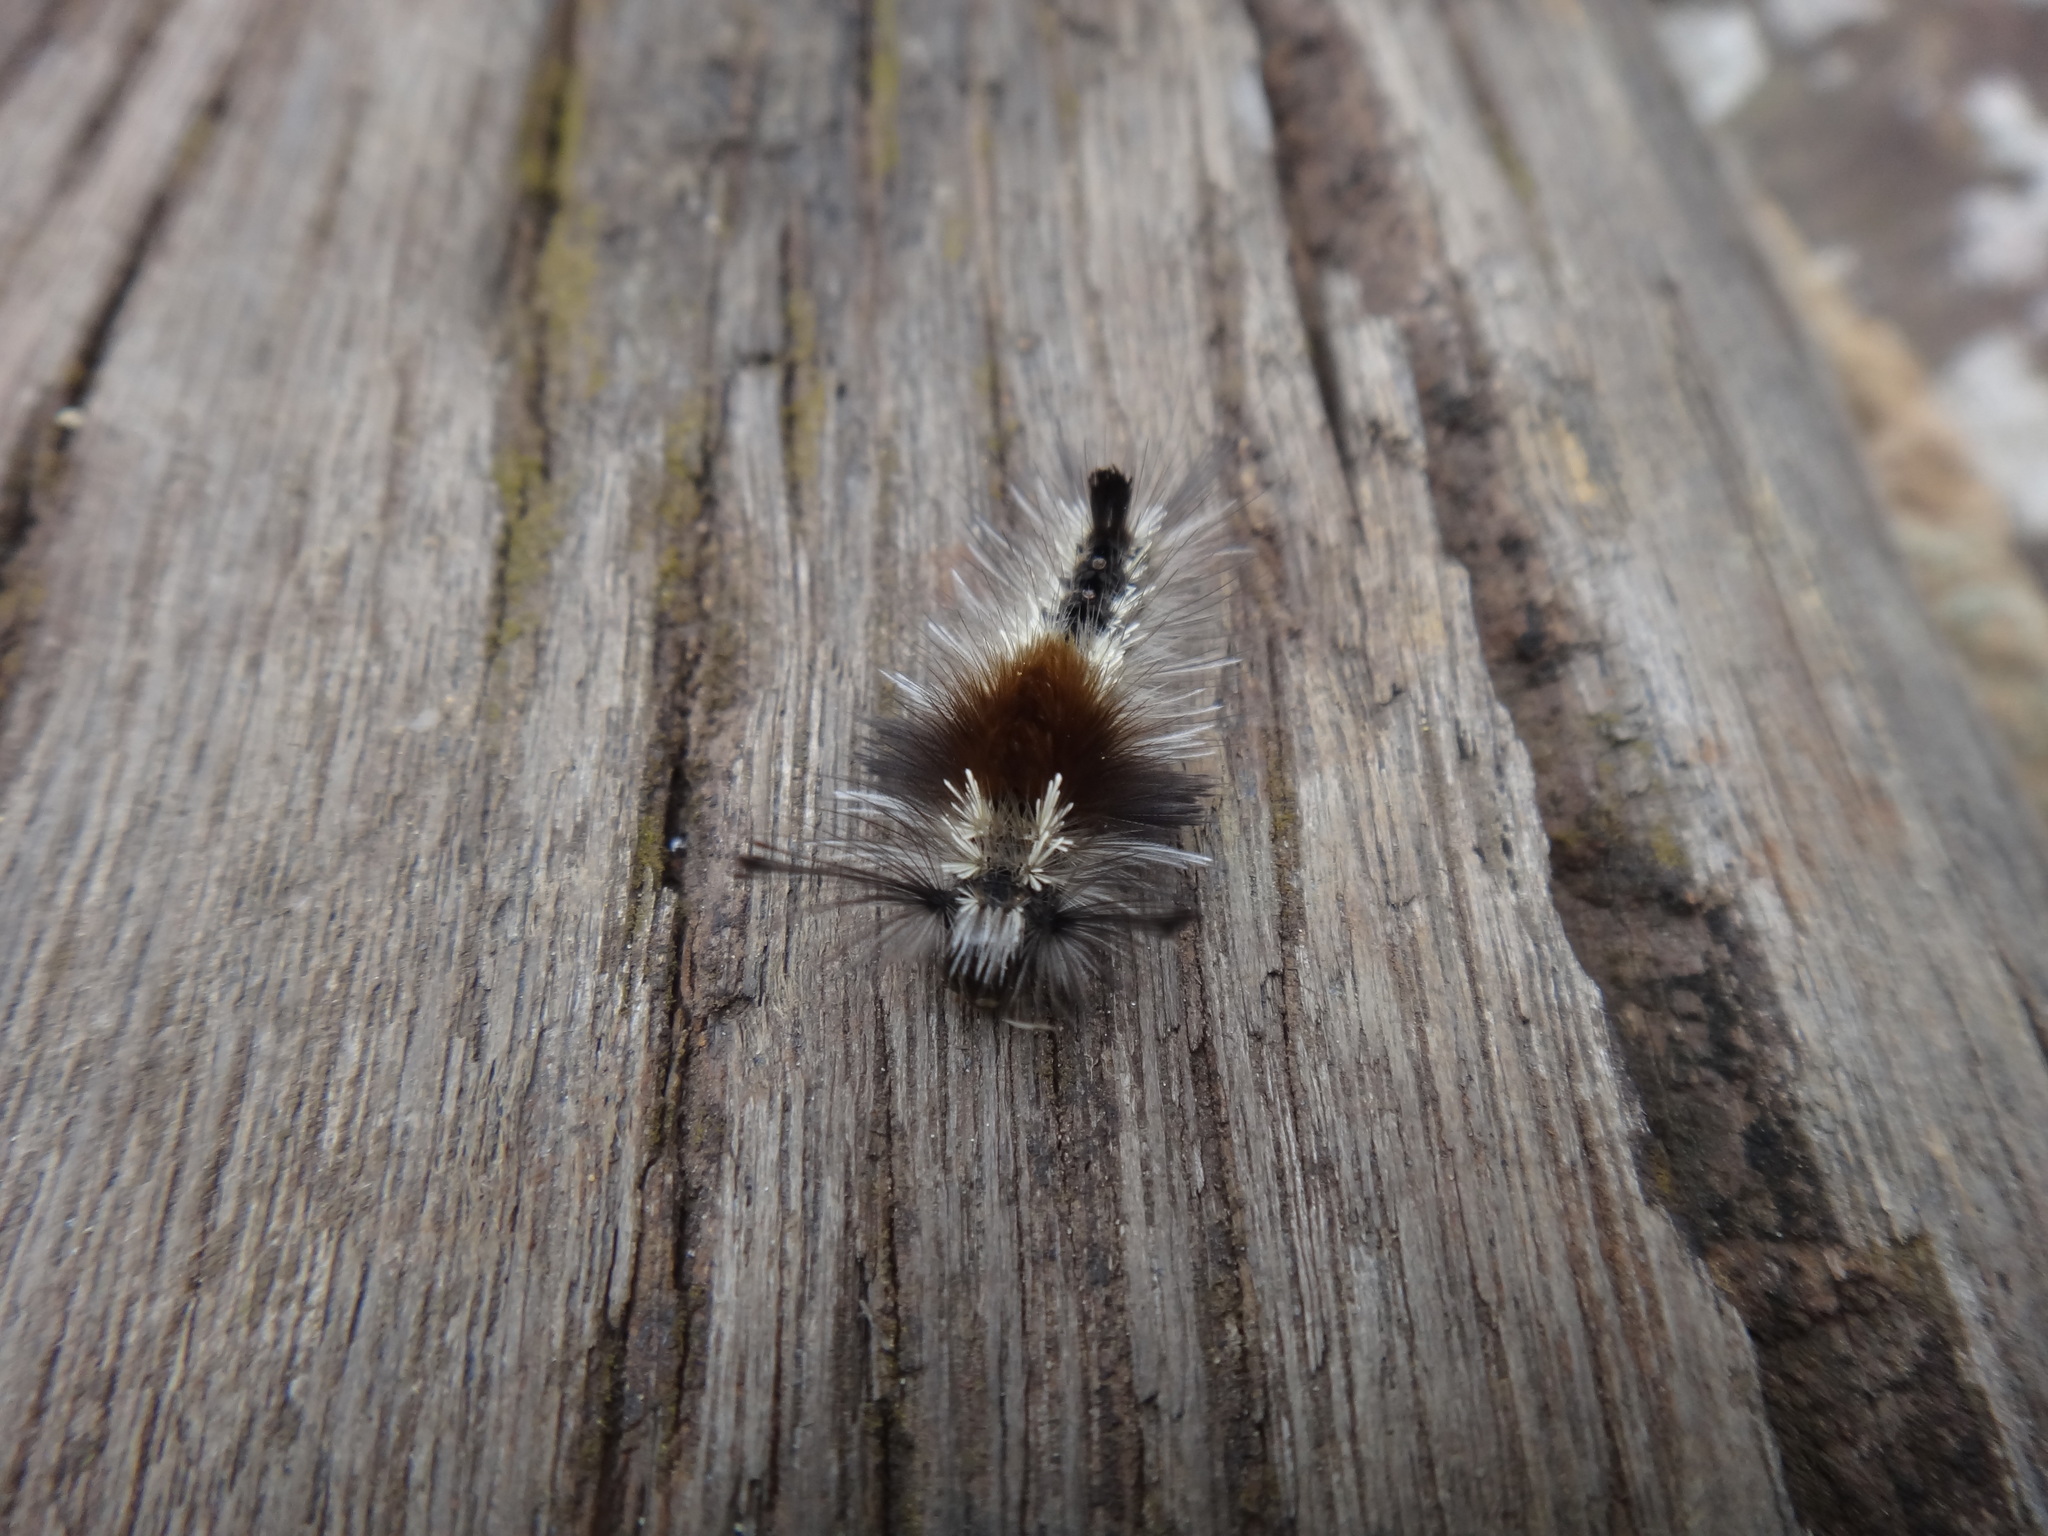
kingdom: Animalia
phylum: Arthropoda
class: Insecta
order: Lepidoptera
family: Erebidae
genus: Cifuna
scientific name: Cifuna locuples
